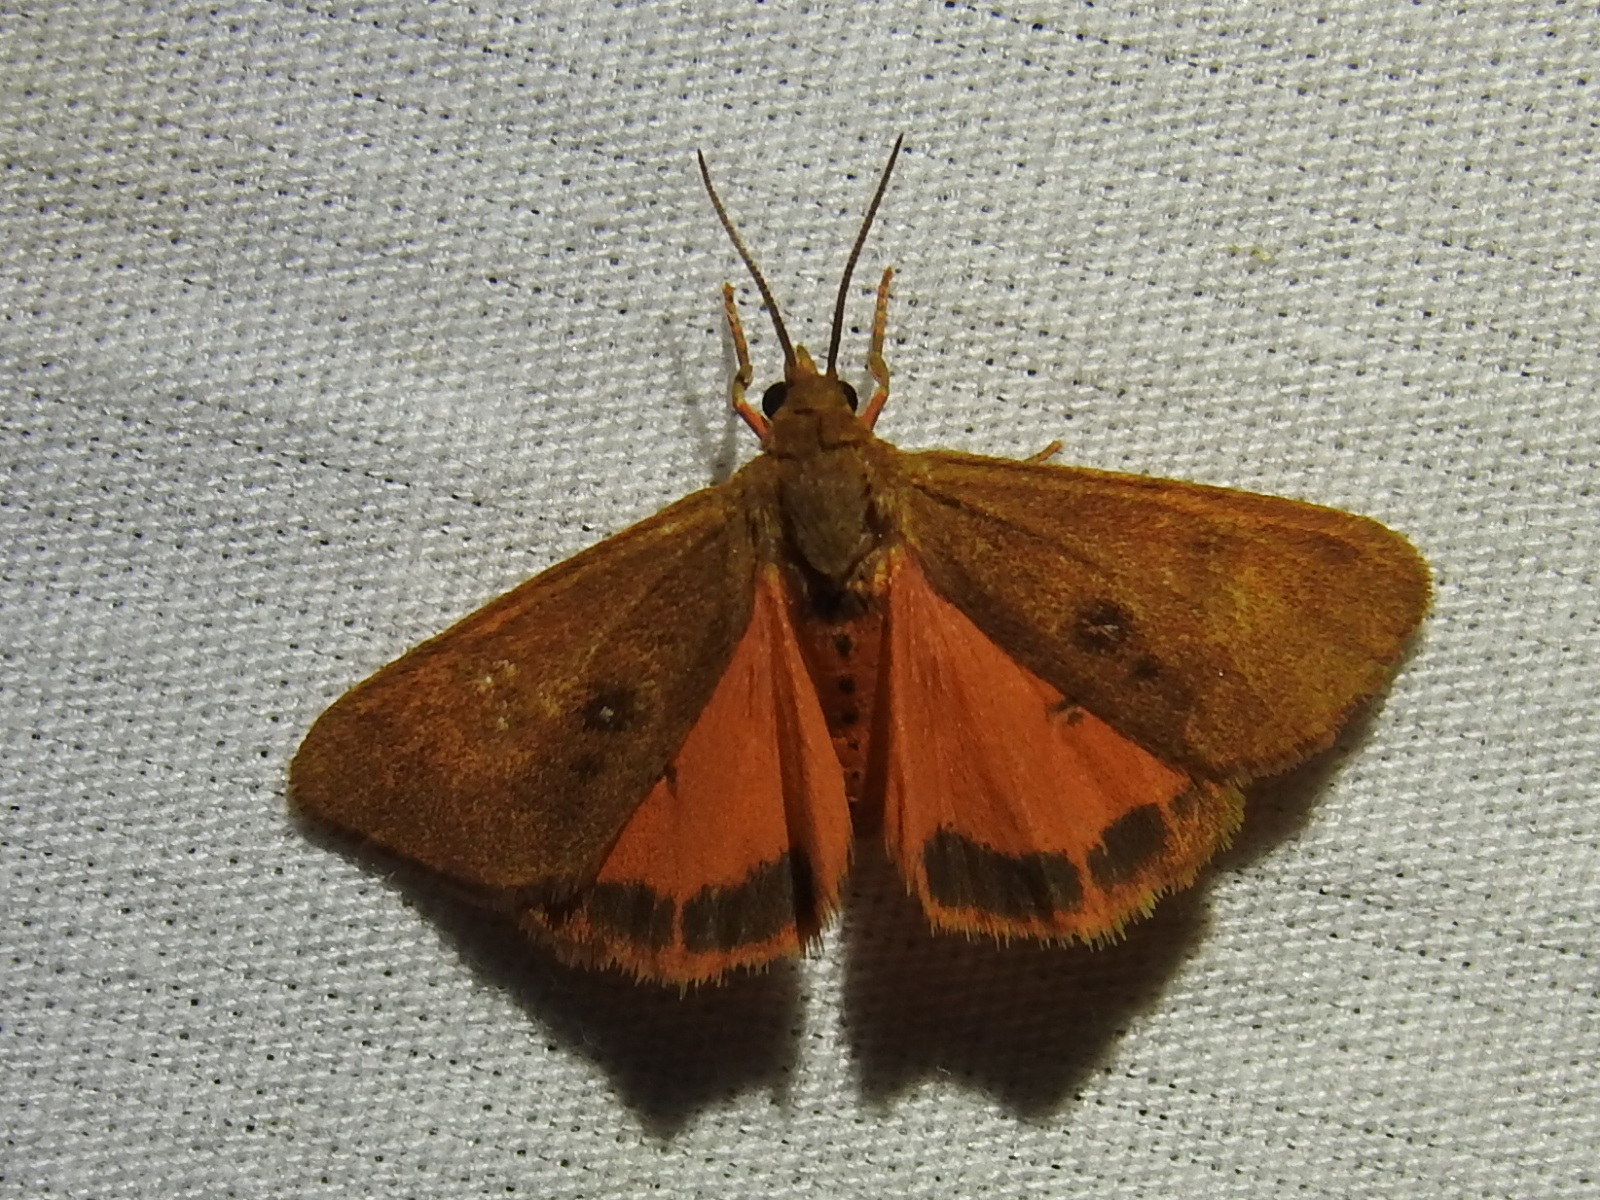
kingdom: Animalia
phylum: Arthropoda
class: Insecta
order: Lepidoptera
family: Erebidae
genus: Virbia
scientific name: Virbia aurantiaca
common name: Orange virbia moth
